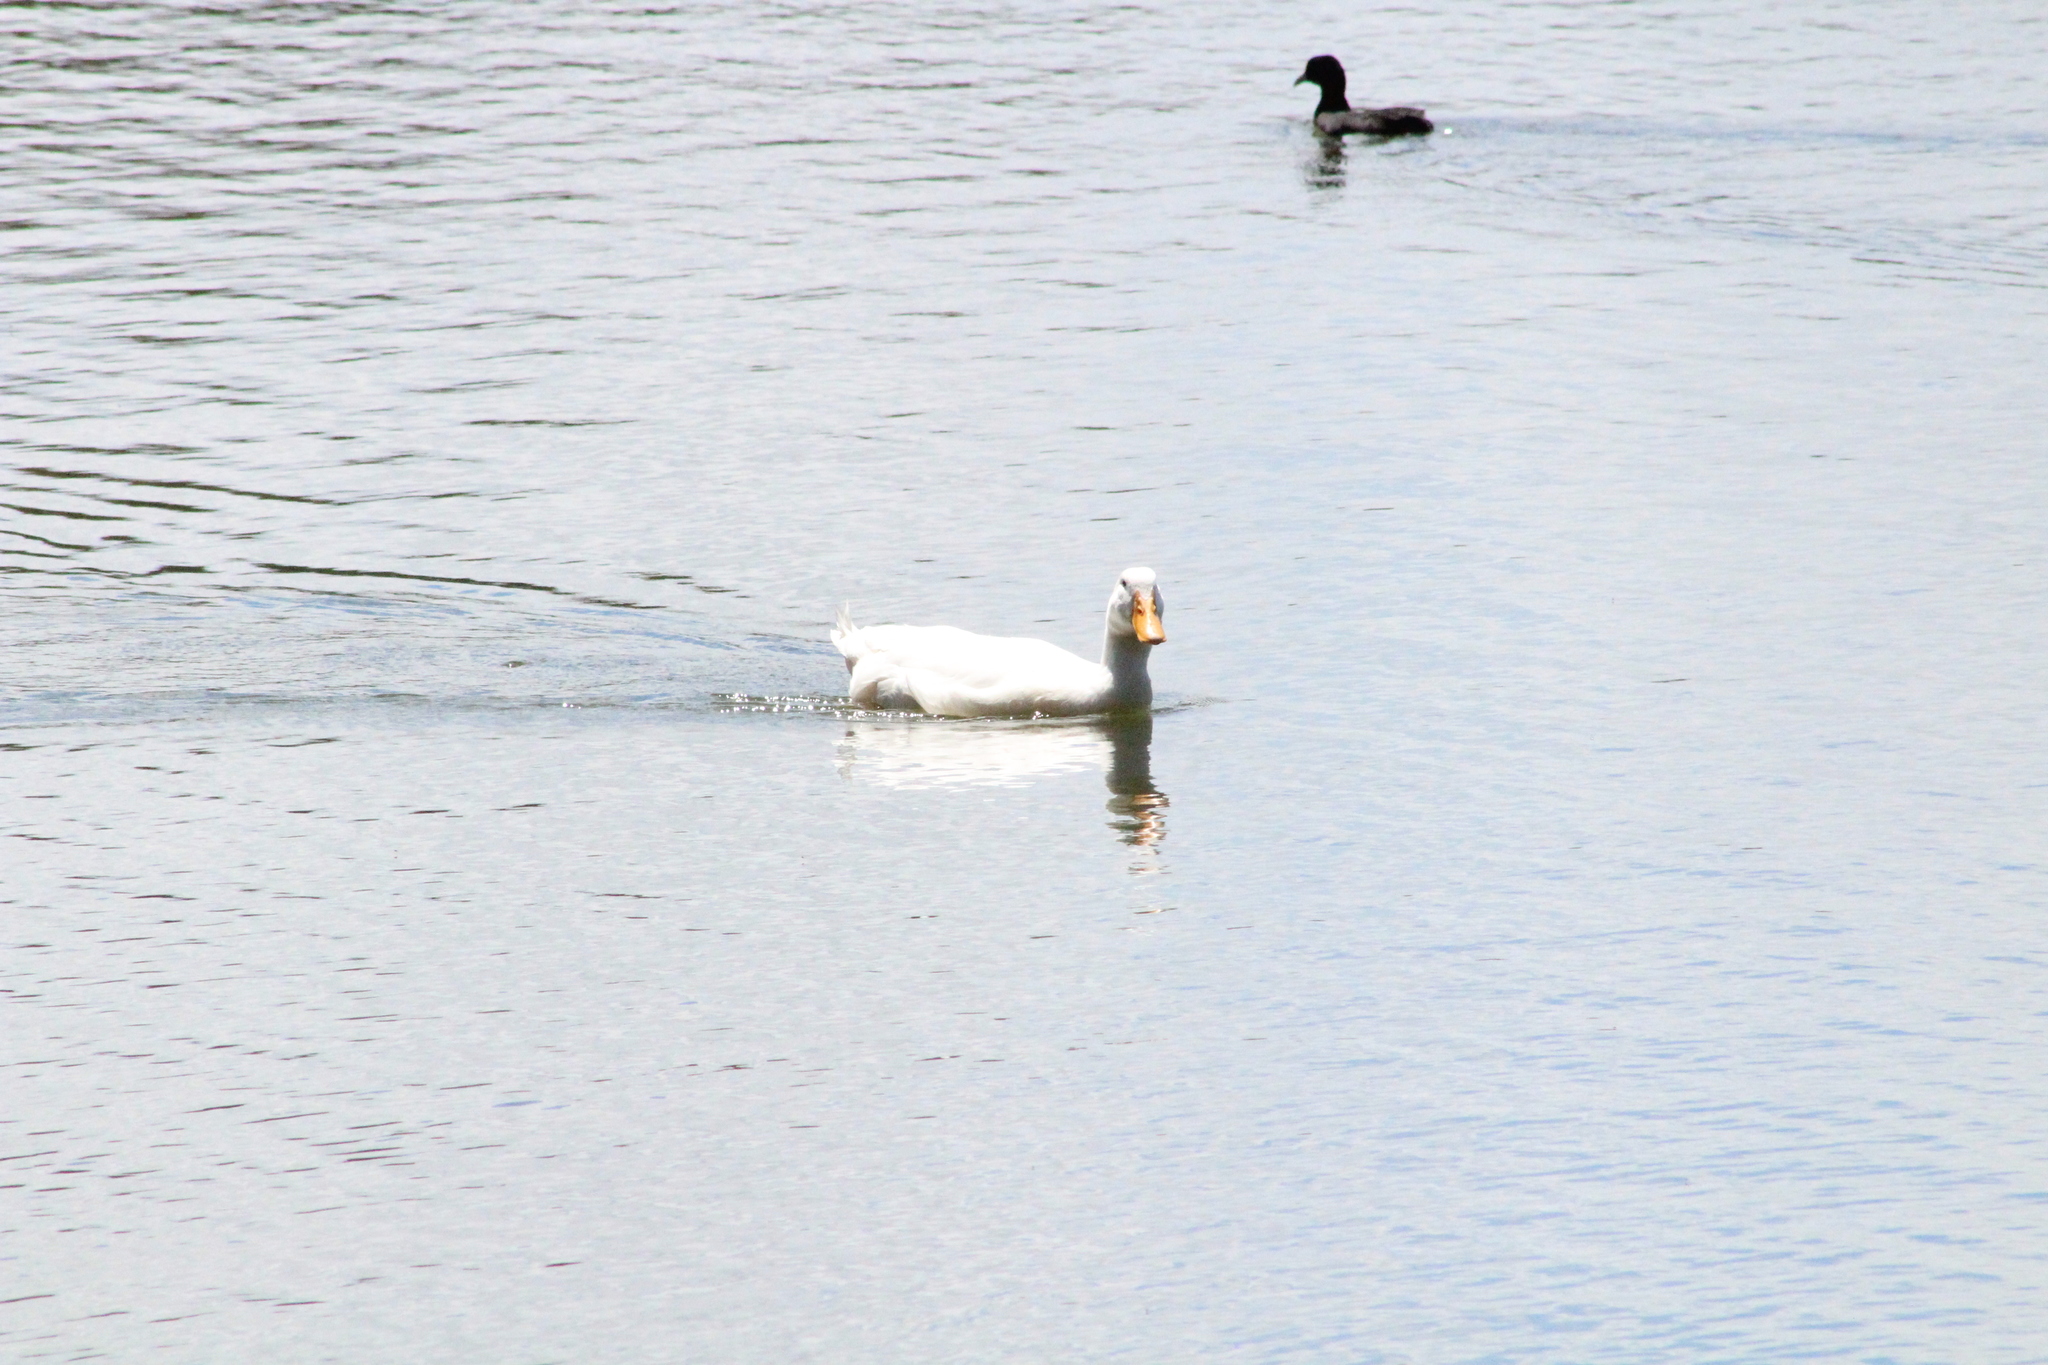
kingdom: Animalia
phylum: Chordata
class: Aves
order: Anseriformes
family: Anatidae
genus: Anas
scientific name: Anas platyrhynchos
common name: Mallard
